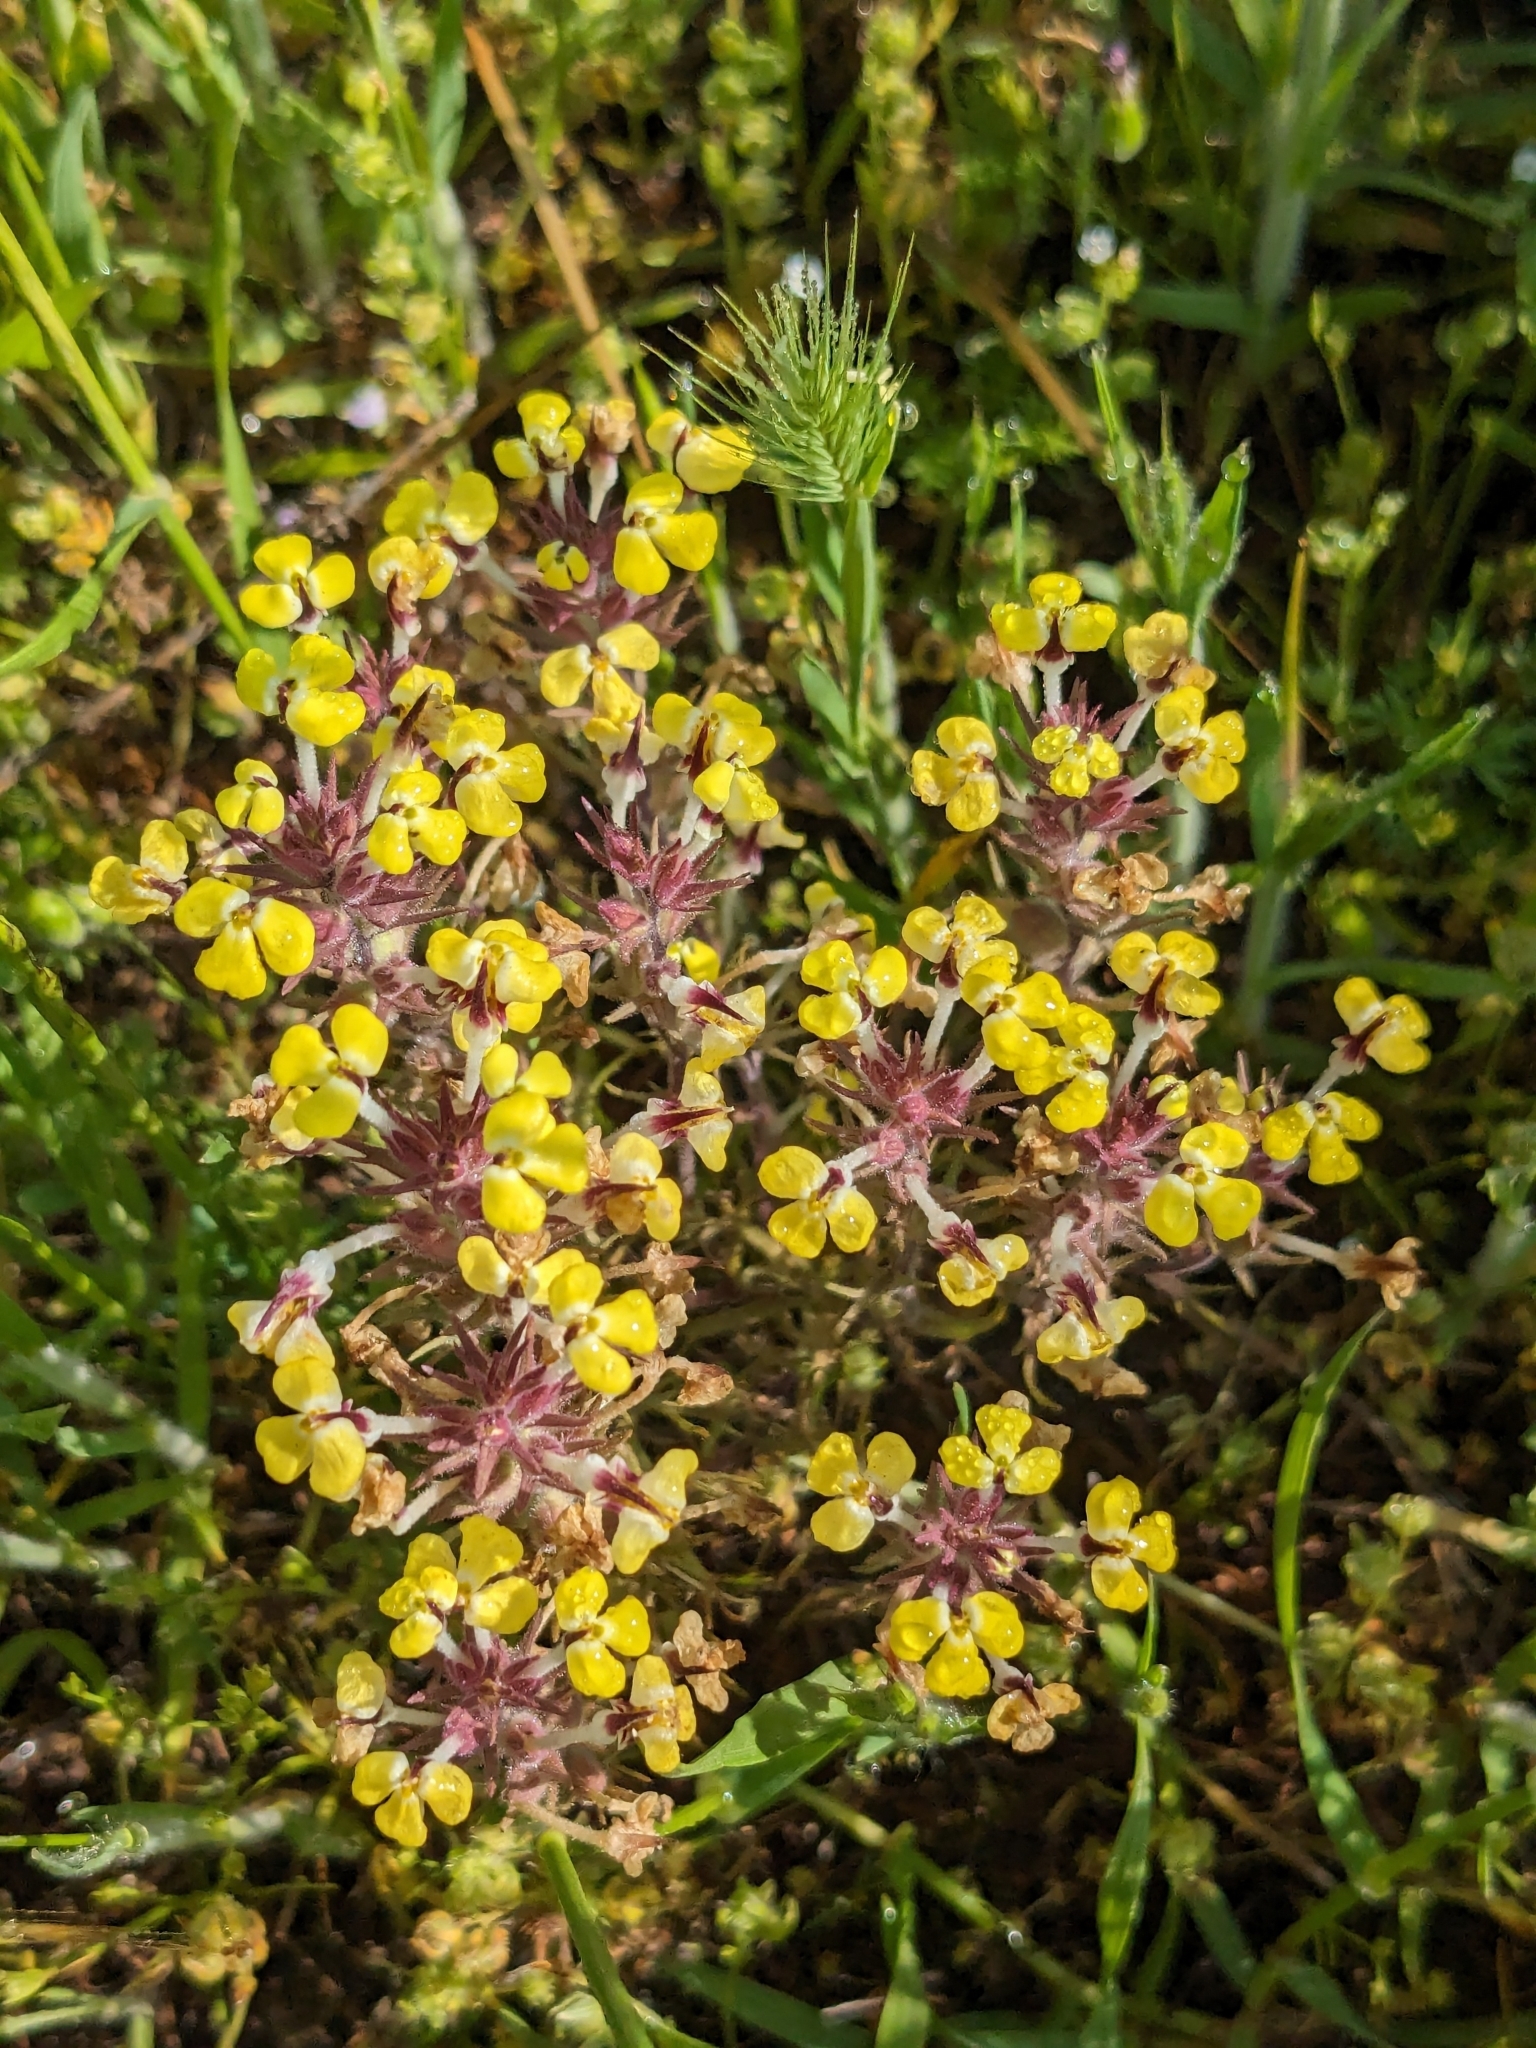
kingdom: Plantae
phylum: Tracheophyta
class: Magnoliopsida
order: Lamiales
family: Orobanchaceae
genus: Triphysaria
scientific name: Triphysaria eriantha
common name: Johnny-tuck
